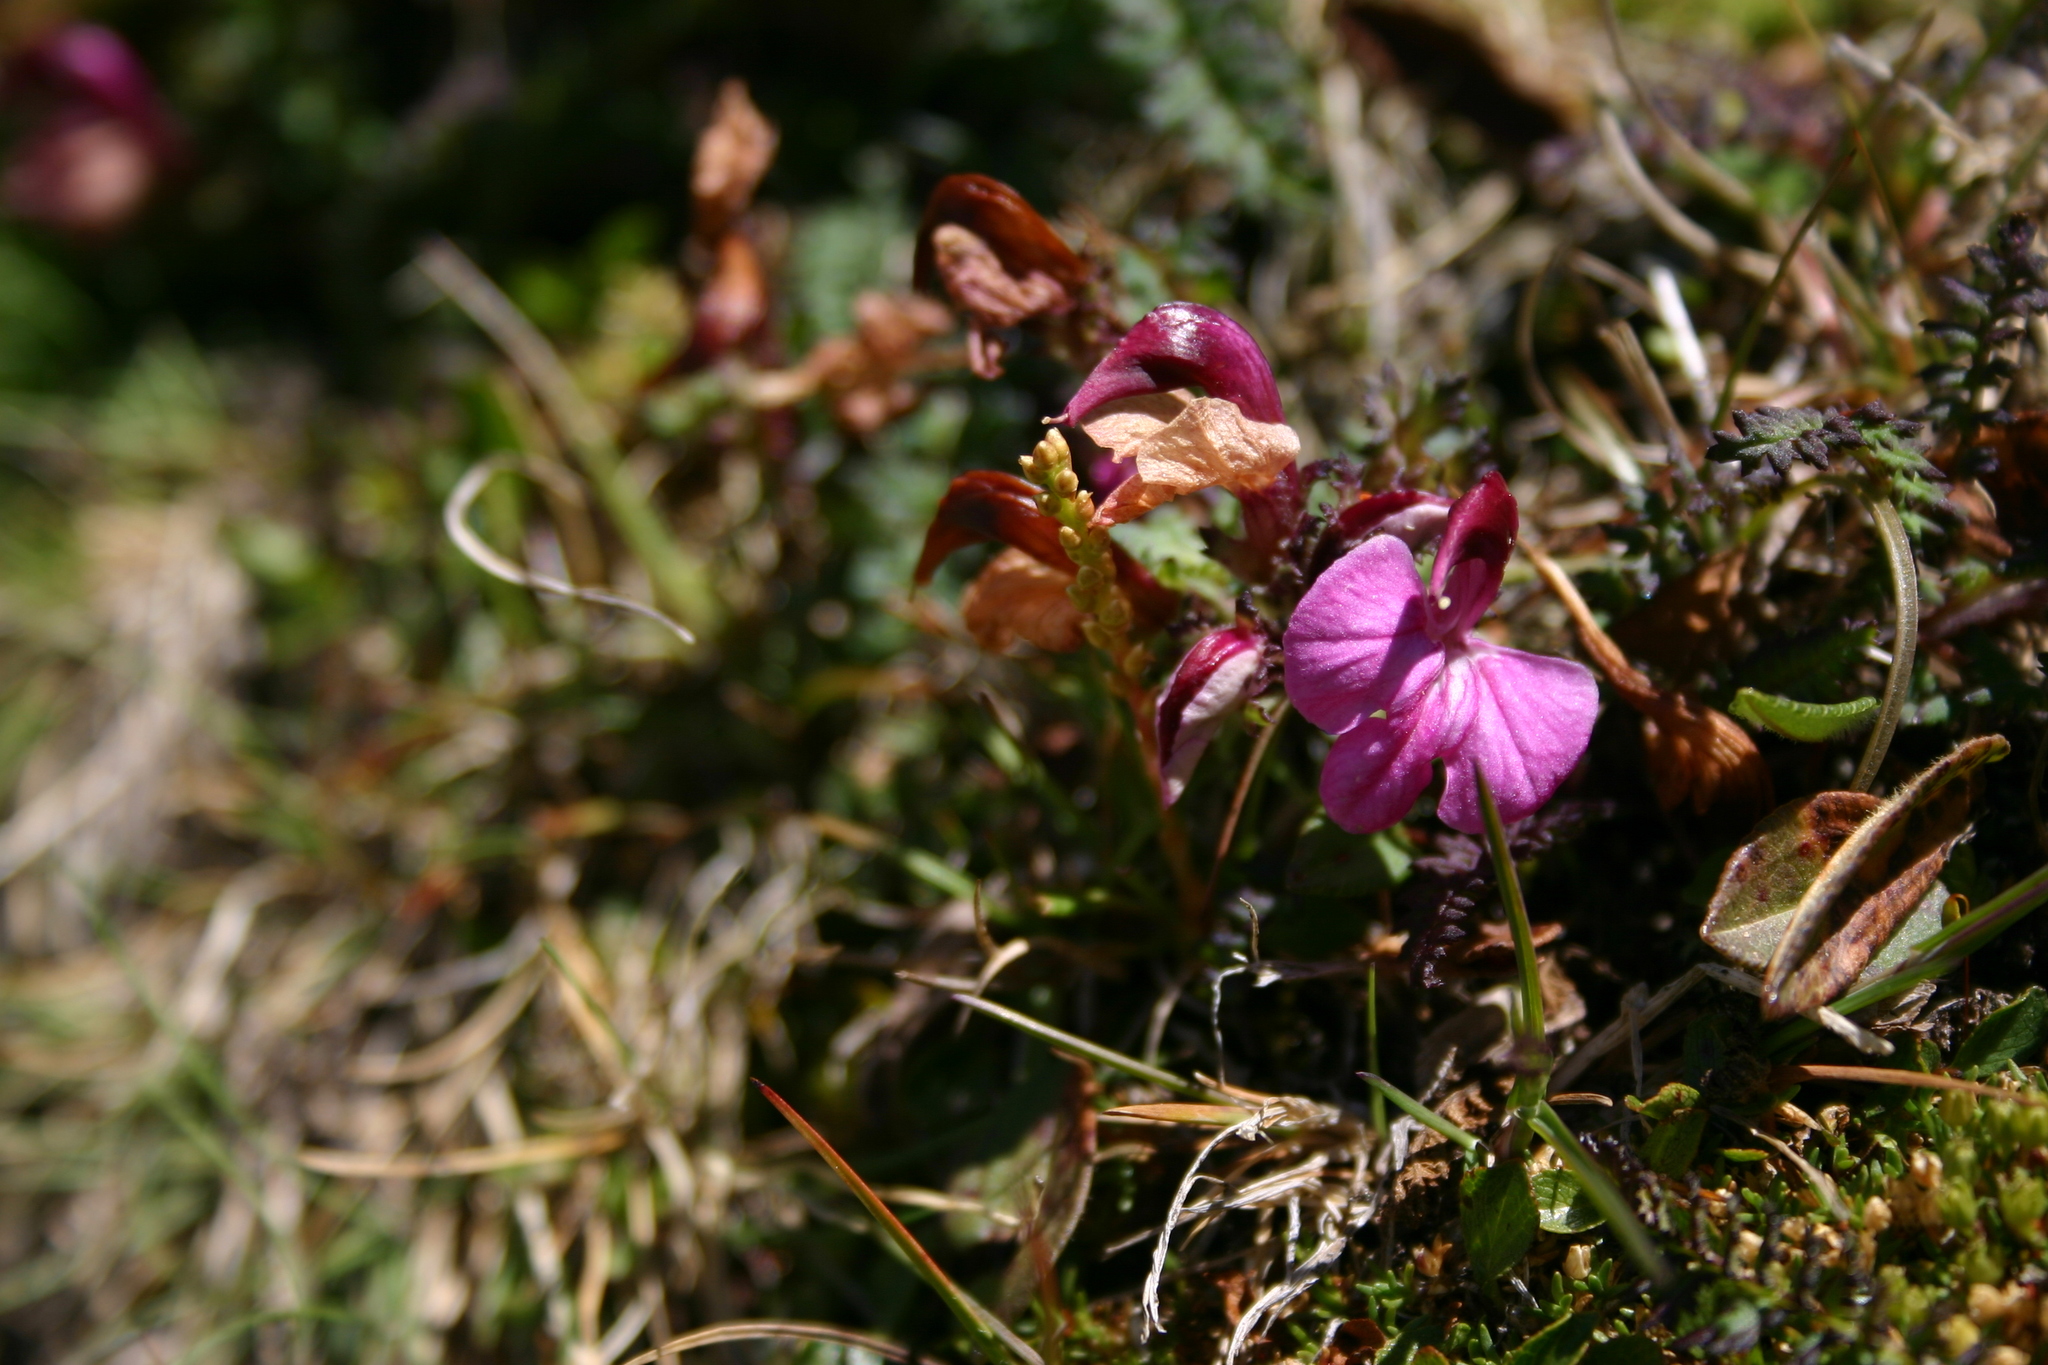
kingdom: Plantae
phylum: Tracheophyta
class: Magnoliopsida
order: Lamiales
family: Orobanchaceae
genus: Pedicularis
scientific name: Pedicularis kerneri
